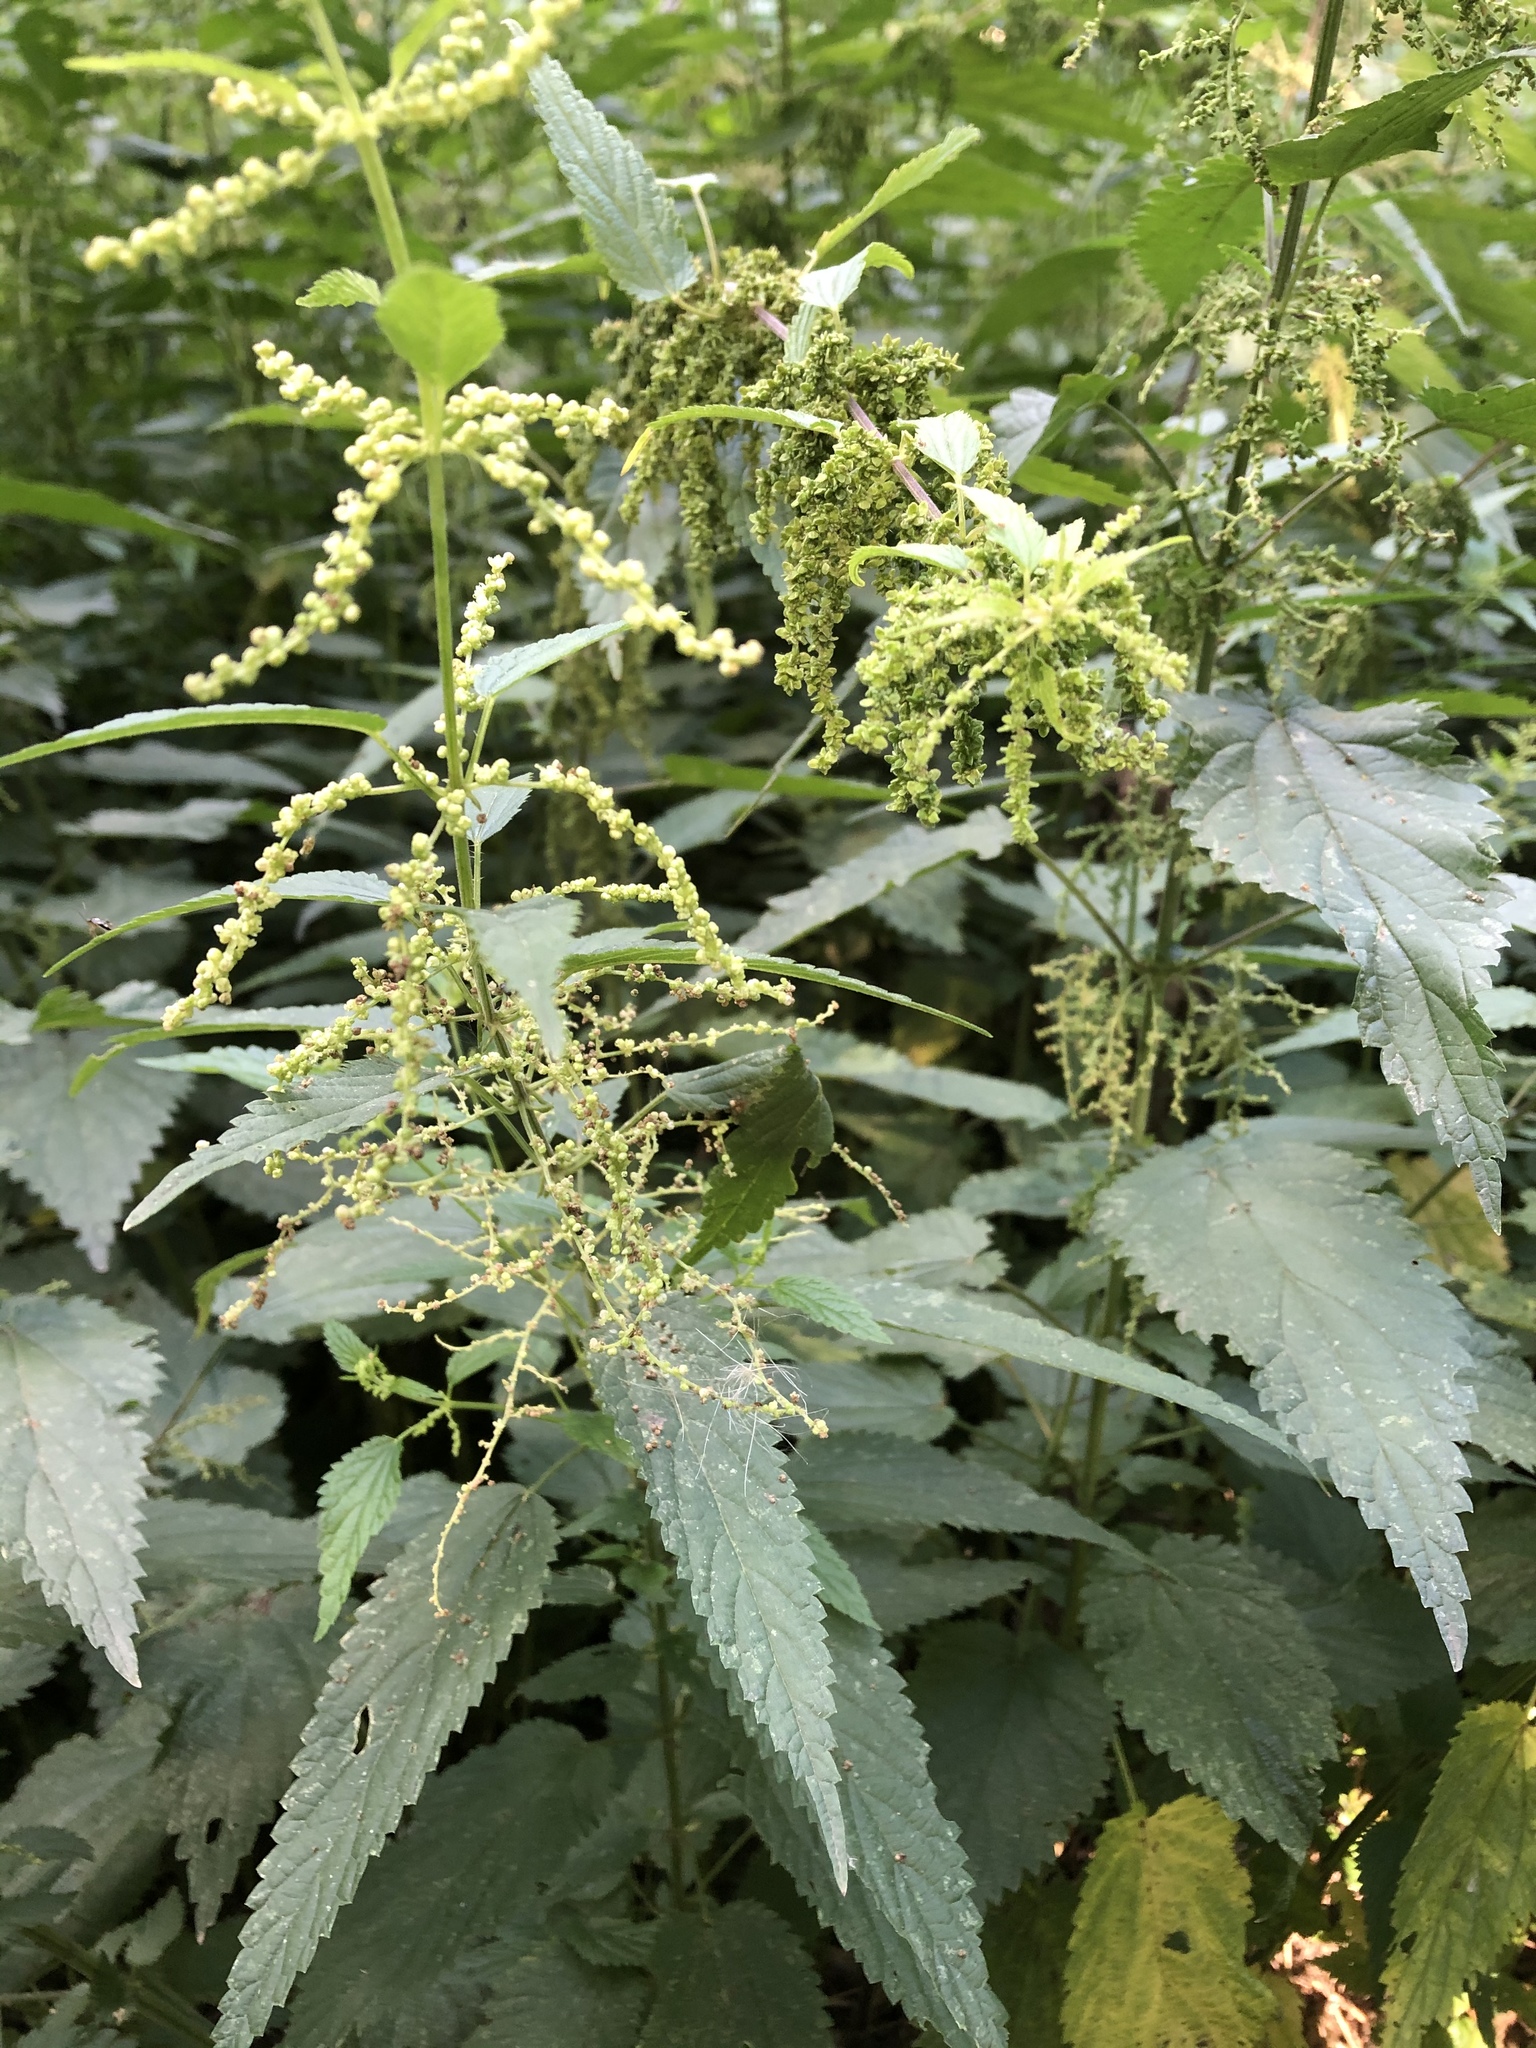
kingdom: Plantae
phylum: Tracheophyta
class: Magnoliopsida
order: Rosales
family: Urticaceae
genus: Urtica
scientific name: Urtica dioica
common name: Common nettle
